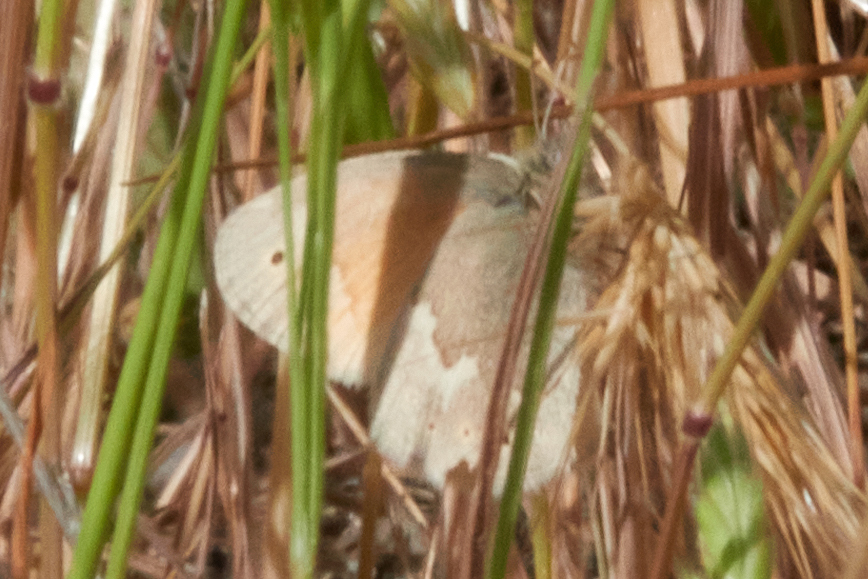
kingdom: Animalia
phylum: Arthropoda
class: Insecta
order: Lepidoptera
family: Nymphalidae
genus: Coenonympha
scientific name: Coenonympha california
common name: Common ringlet
